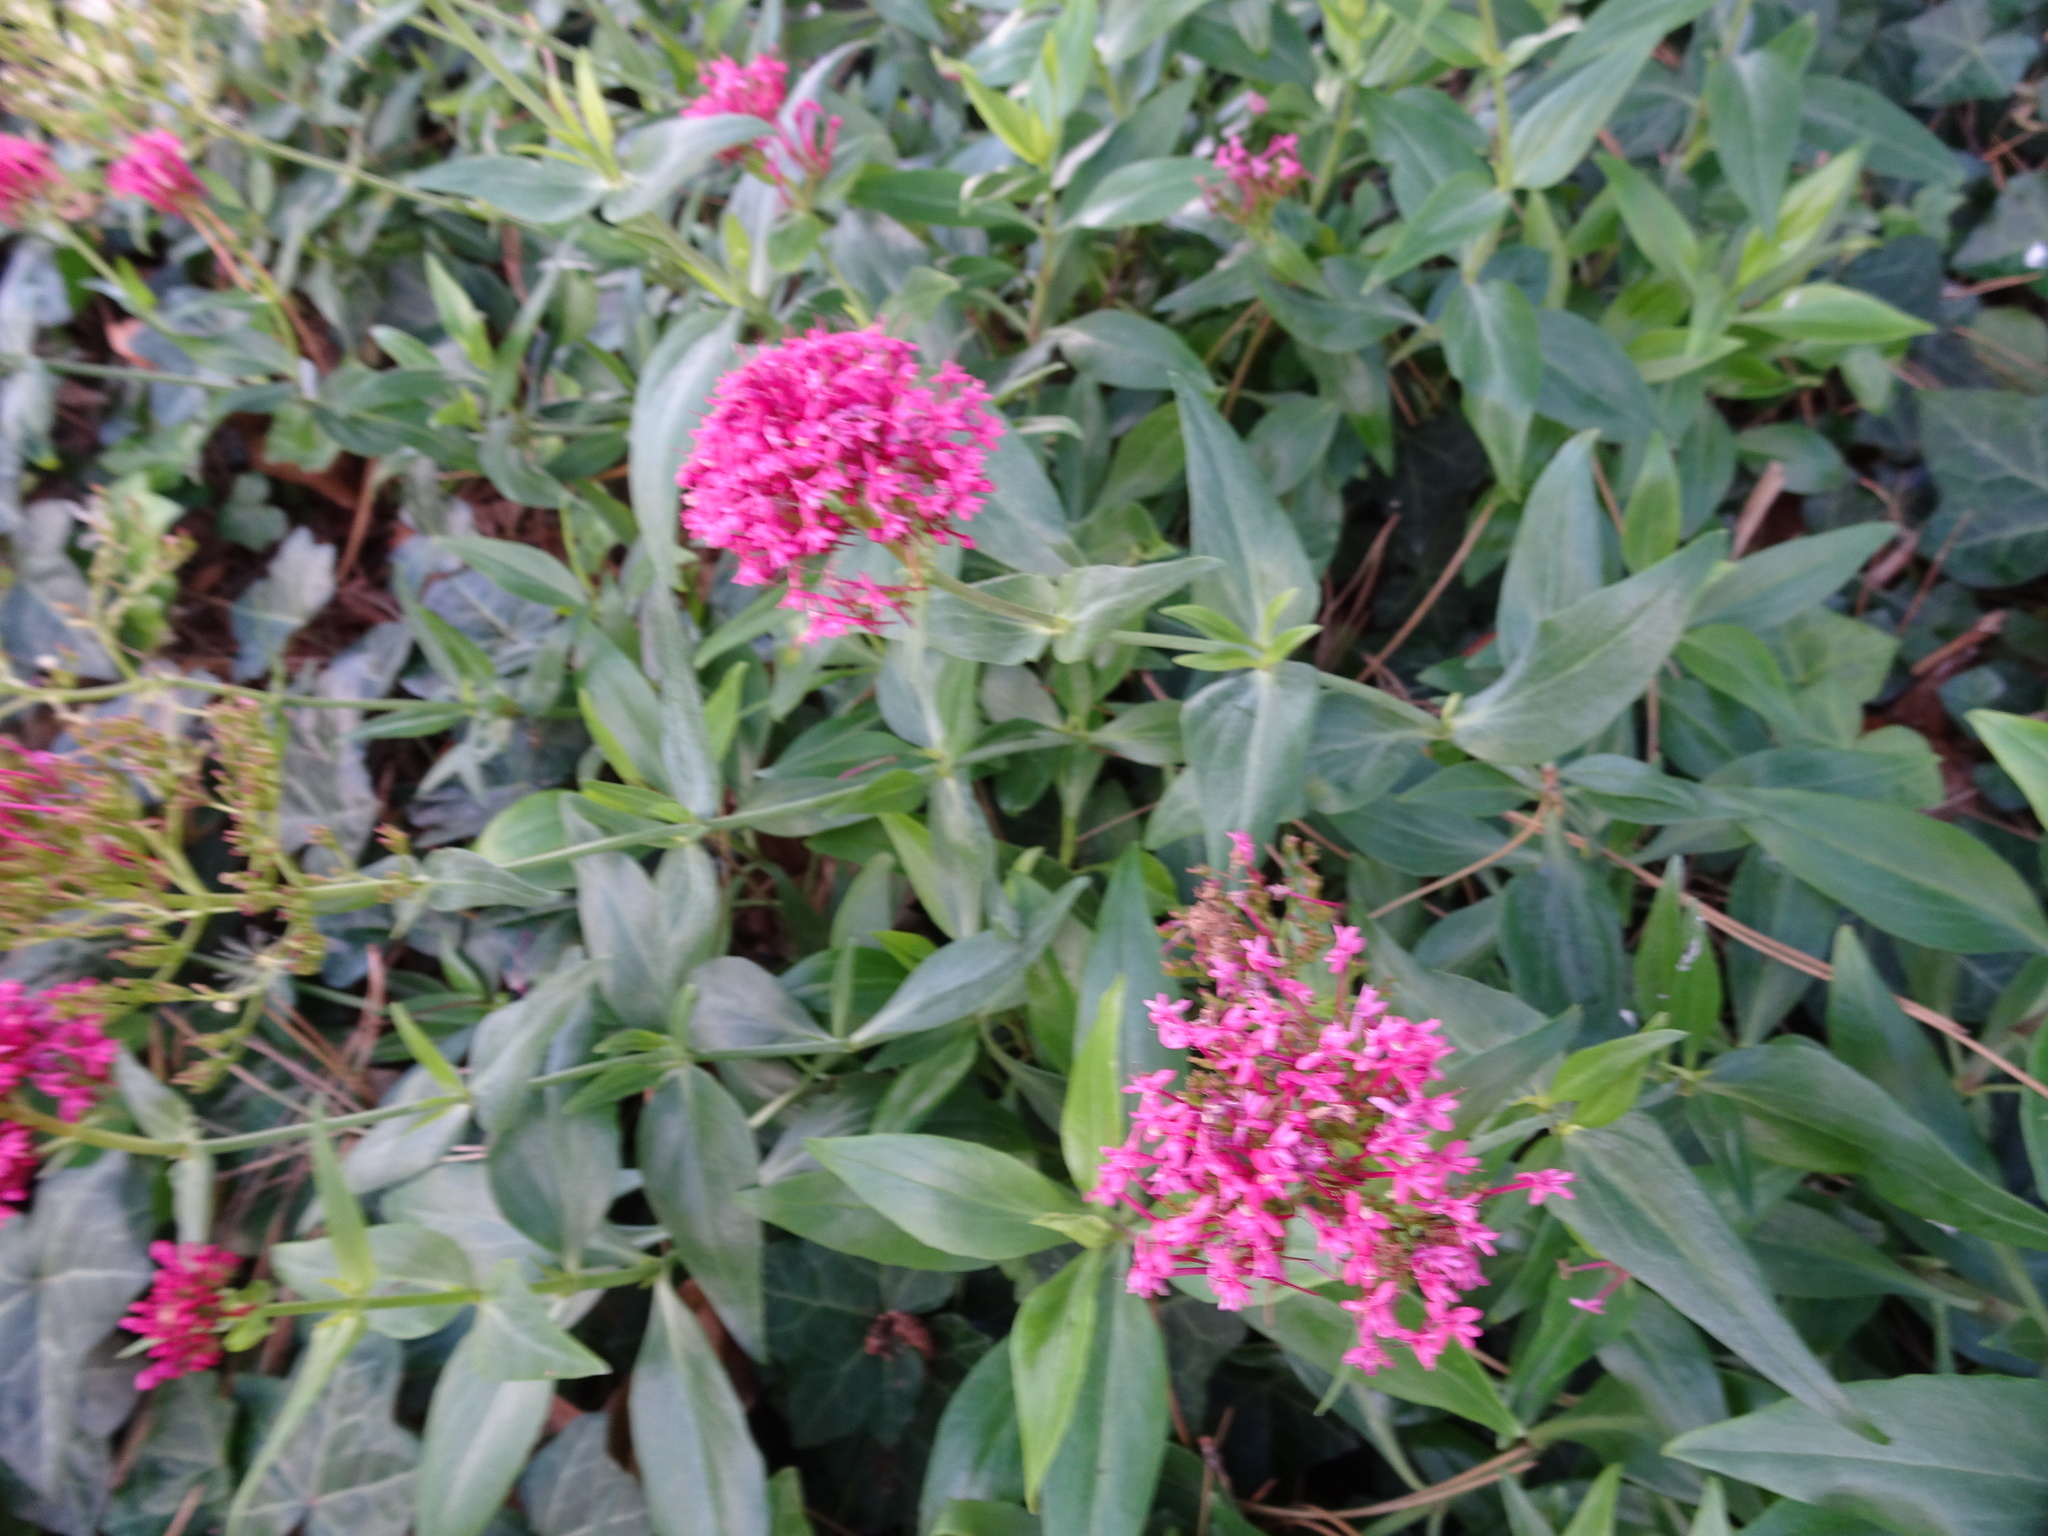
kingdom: Plantae
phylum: Tracheophyta
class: Magnoliopsida
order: Dipsacales
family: Caprifoliaceae
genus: Centranthus
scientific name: Centranthus ruber
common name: Red valerian
